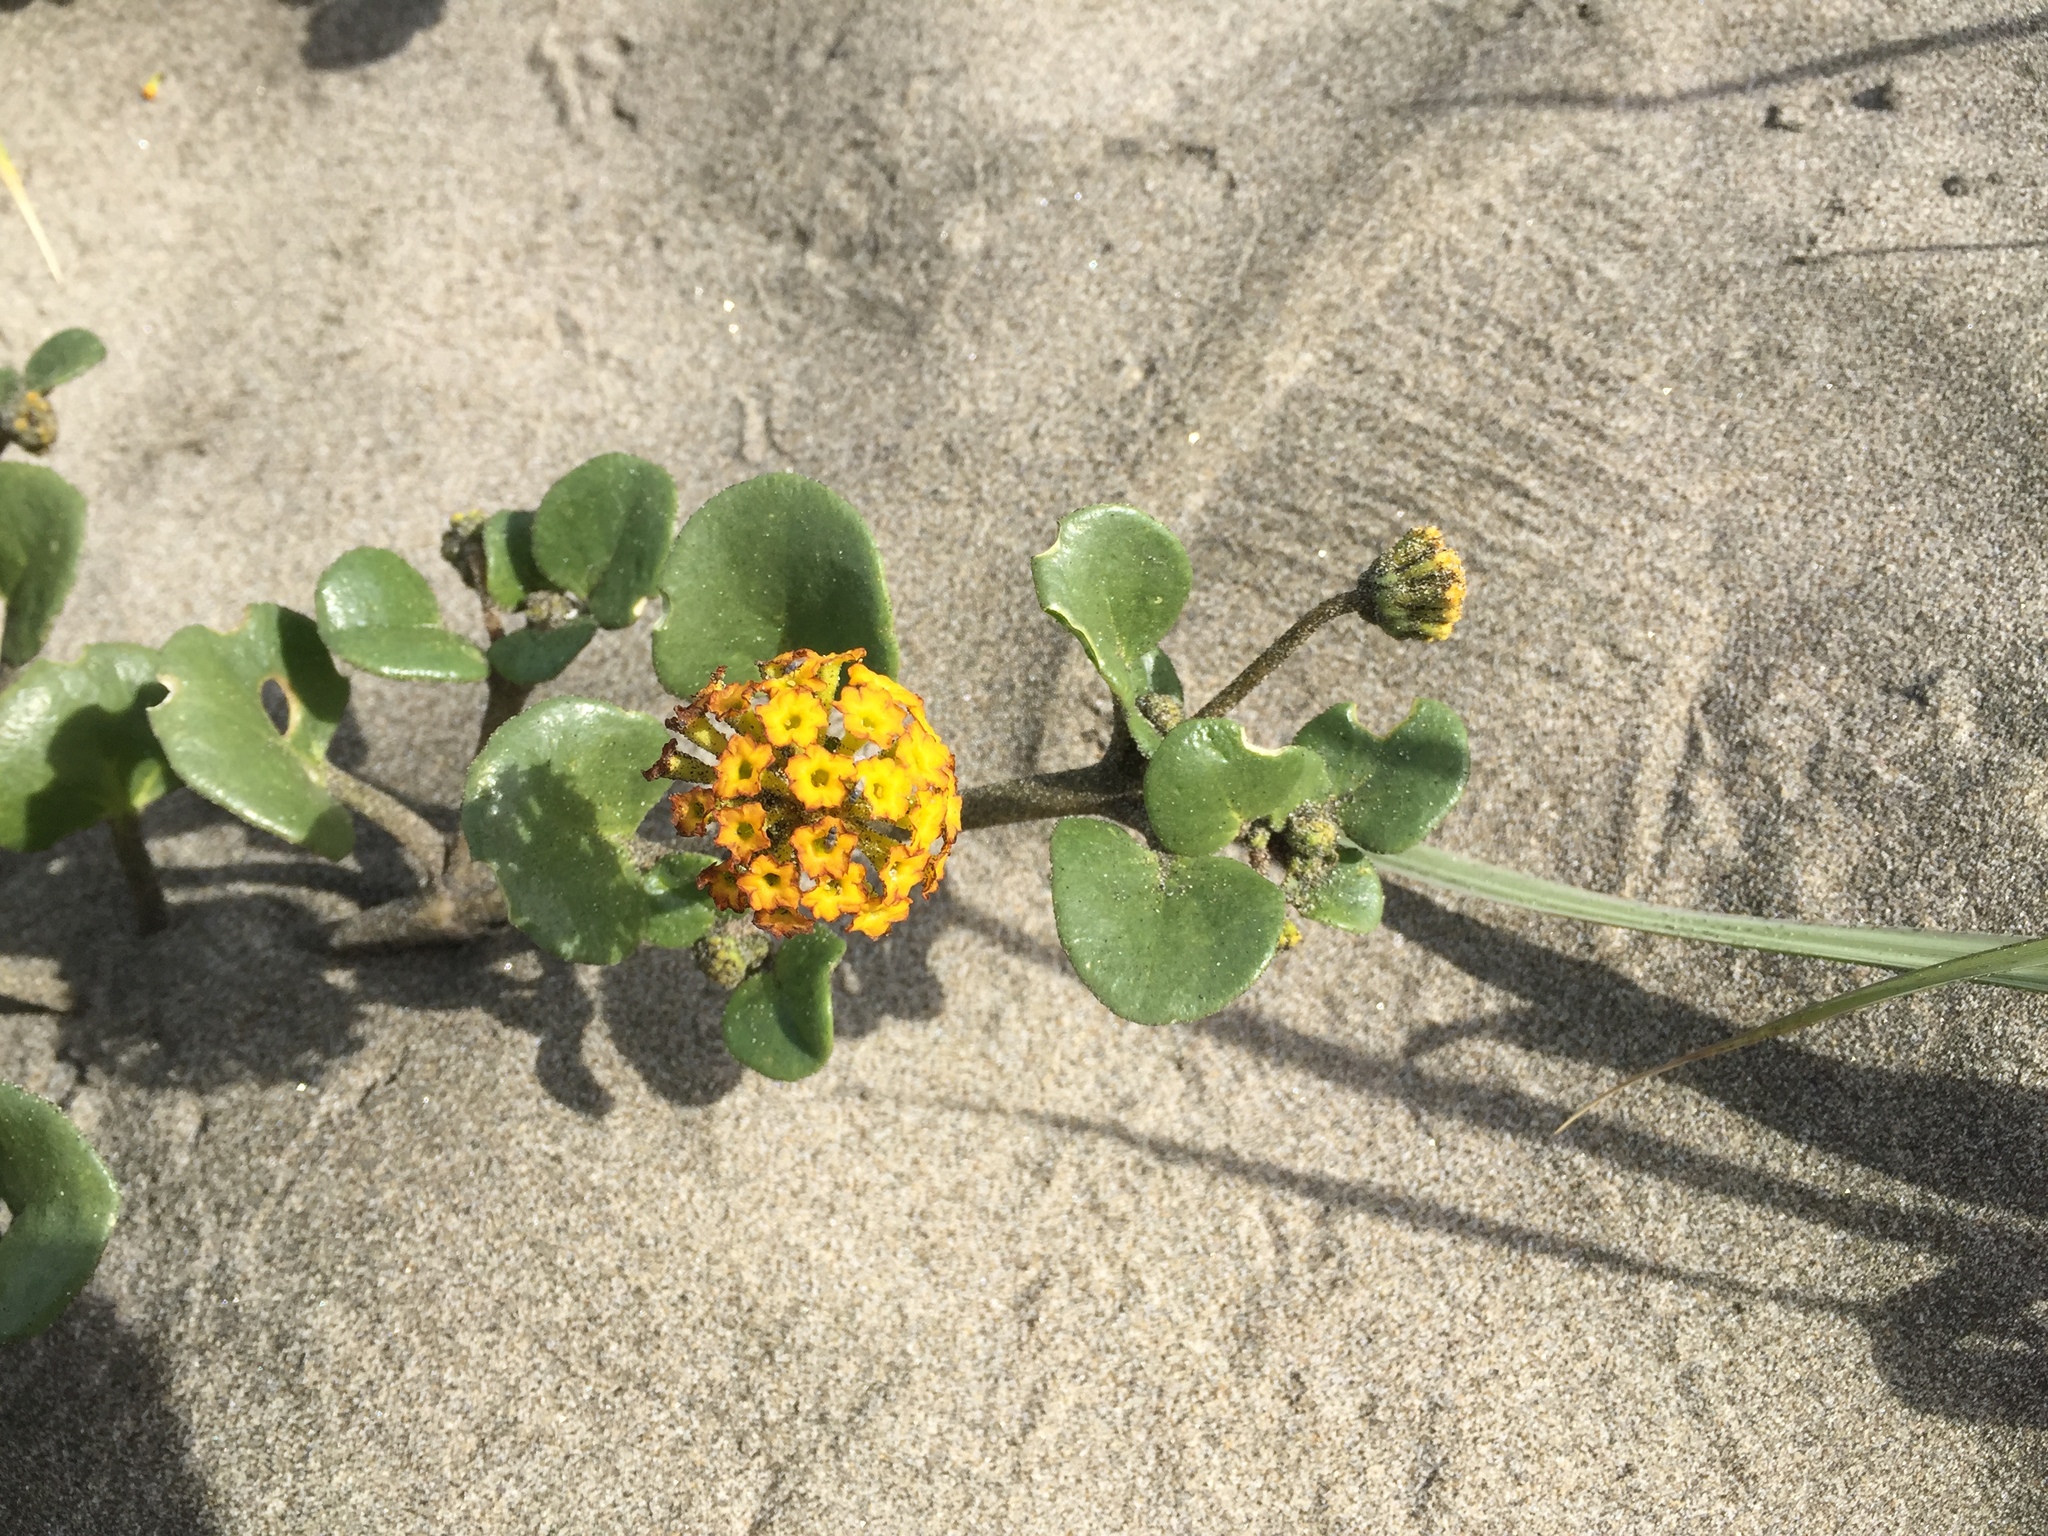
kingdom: Plantae
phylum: Tracheophyta
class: Magnoliopsida
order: Caryophyllales
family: Nyctaginaceae
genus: Abronia
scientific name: Abronia latifolia
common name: Yellow sand-verbena
